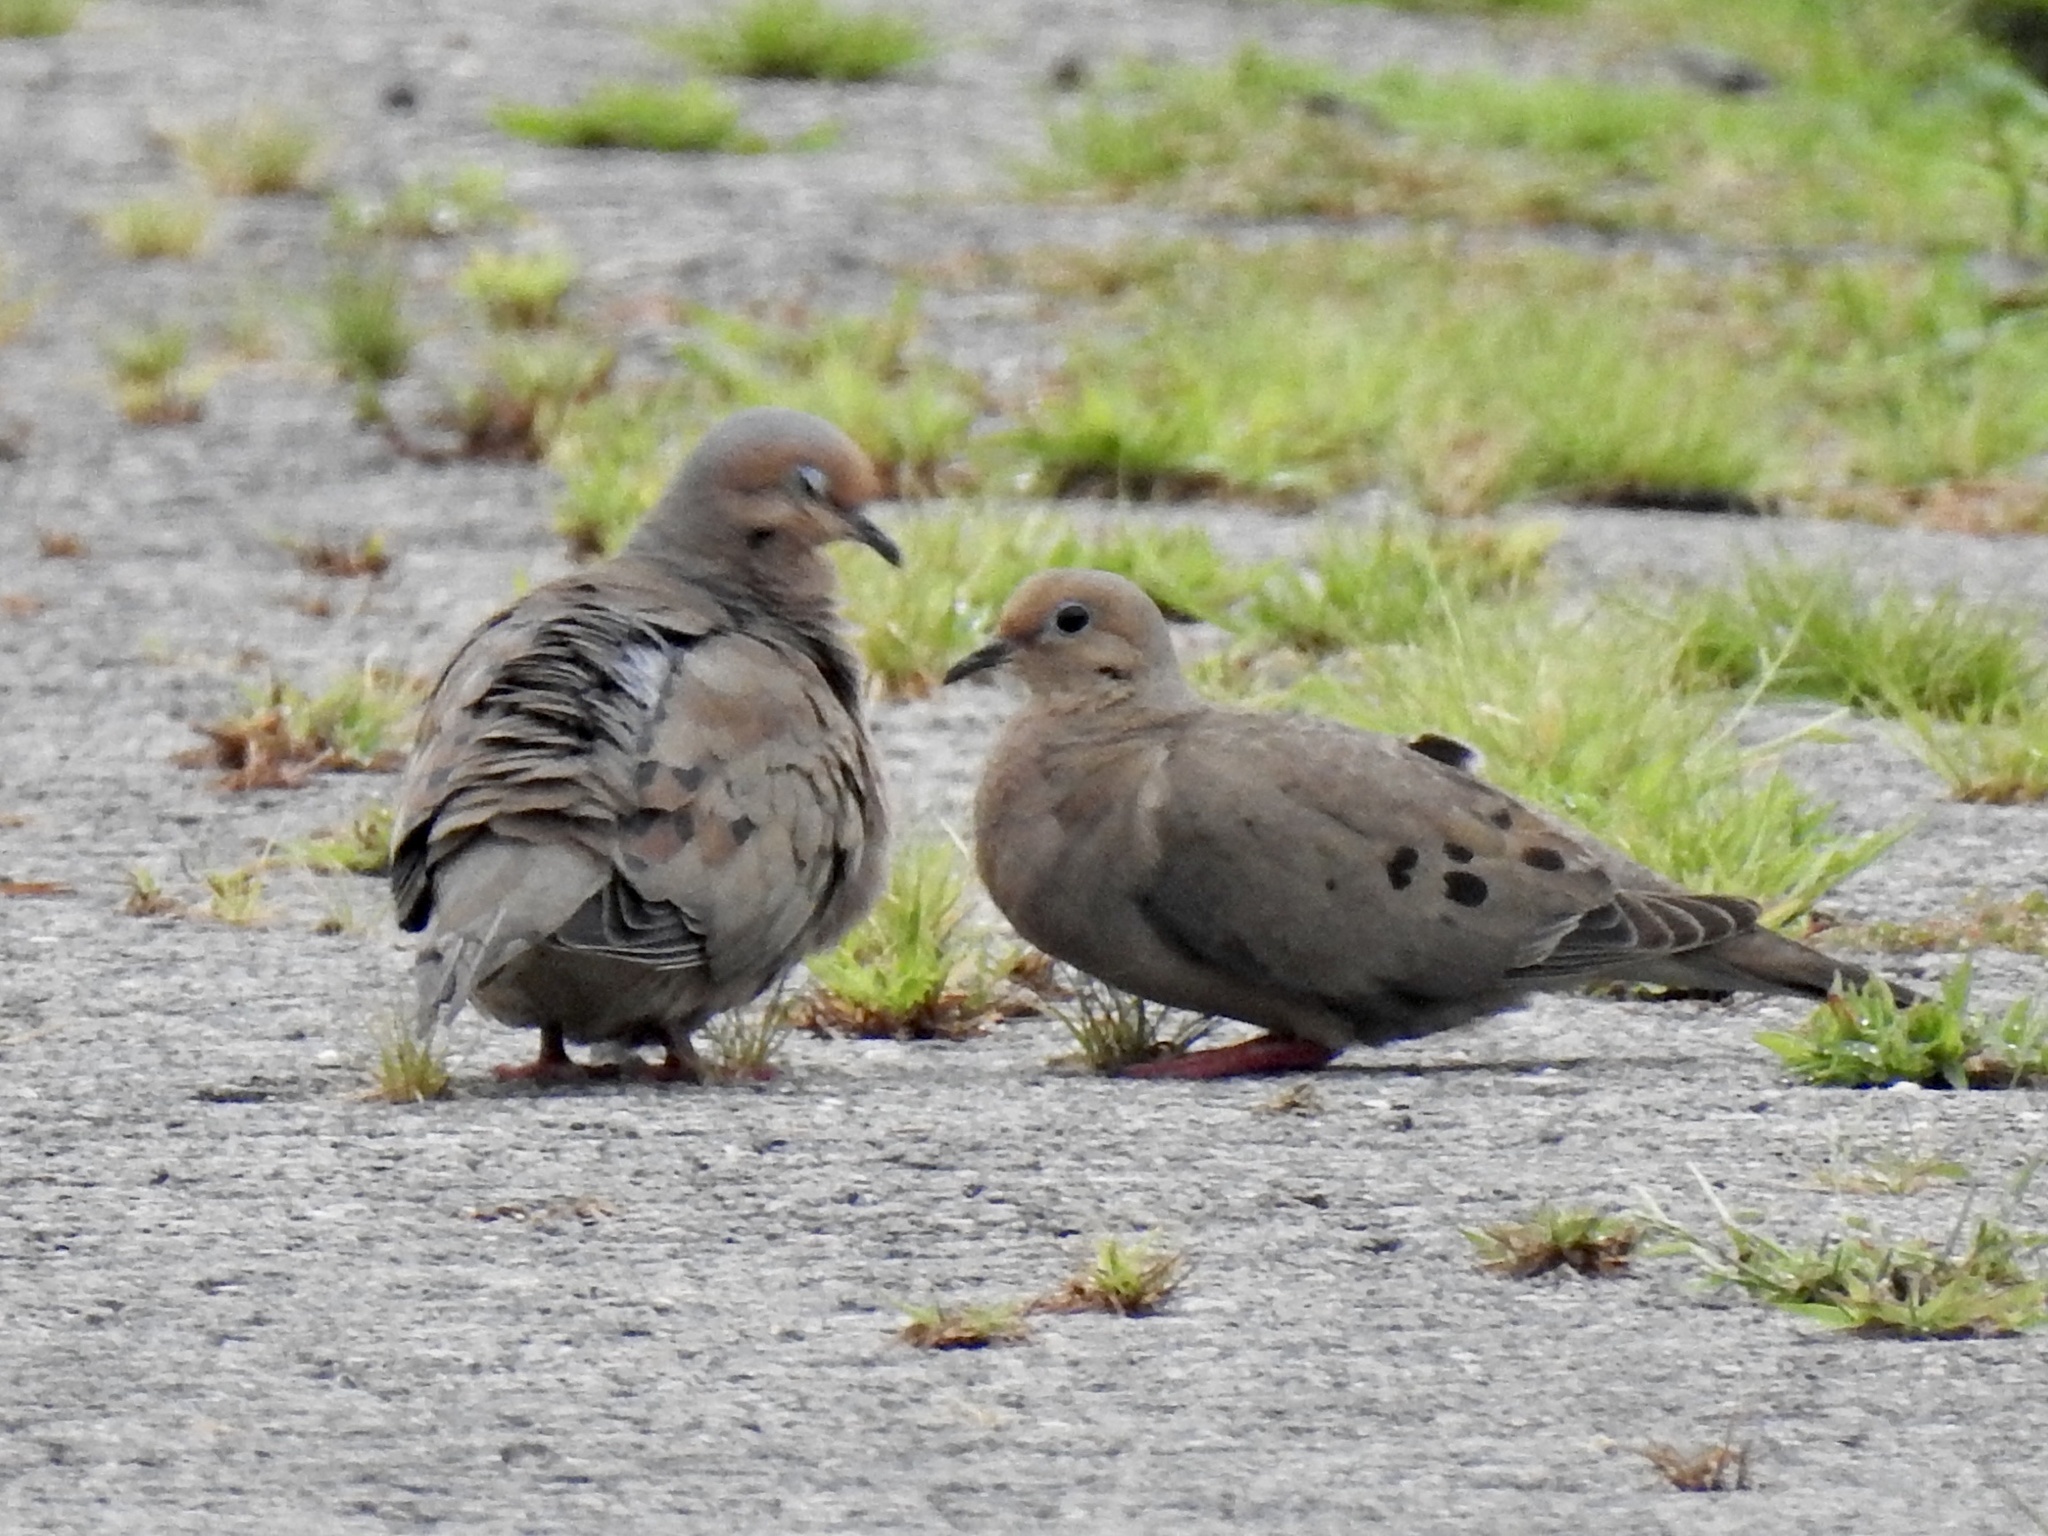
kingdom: Animalia
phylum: Chordata
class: Aves
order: Columbiformes
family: Columbidae
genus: Zenaida
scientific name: Zenaida macroura
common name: Mourning dove
